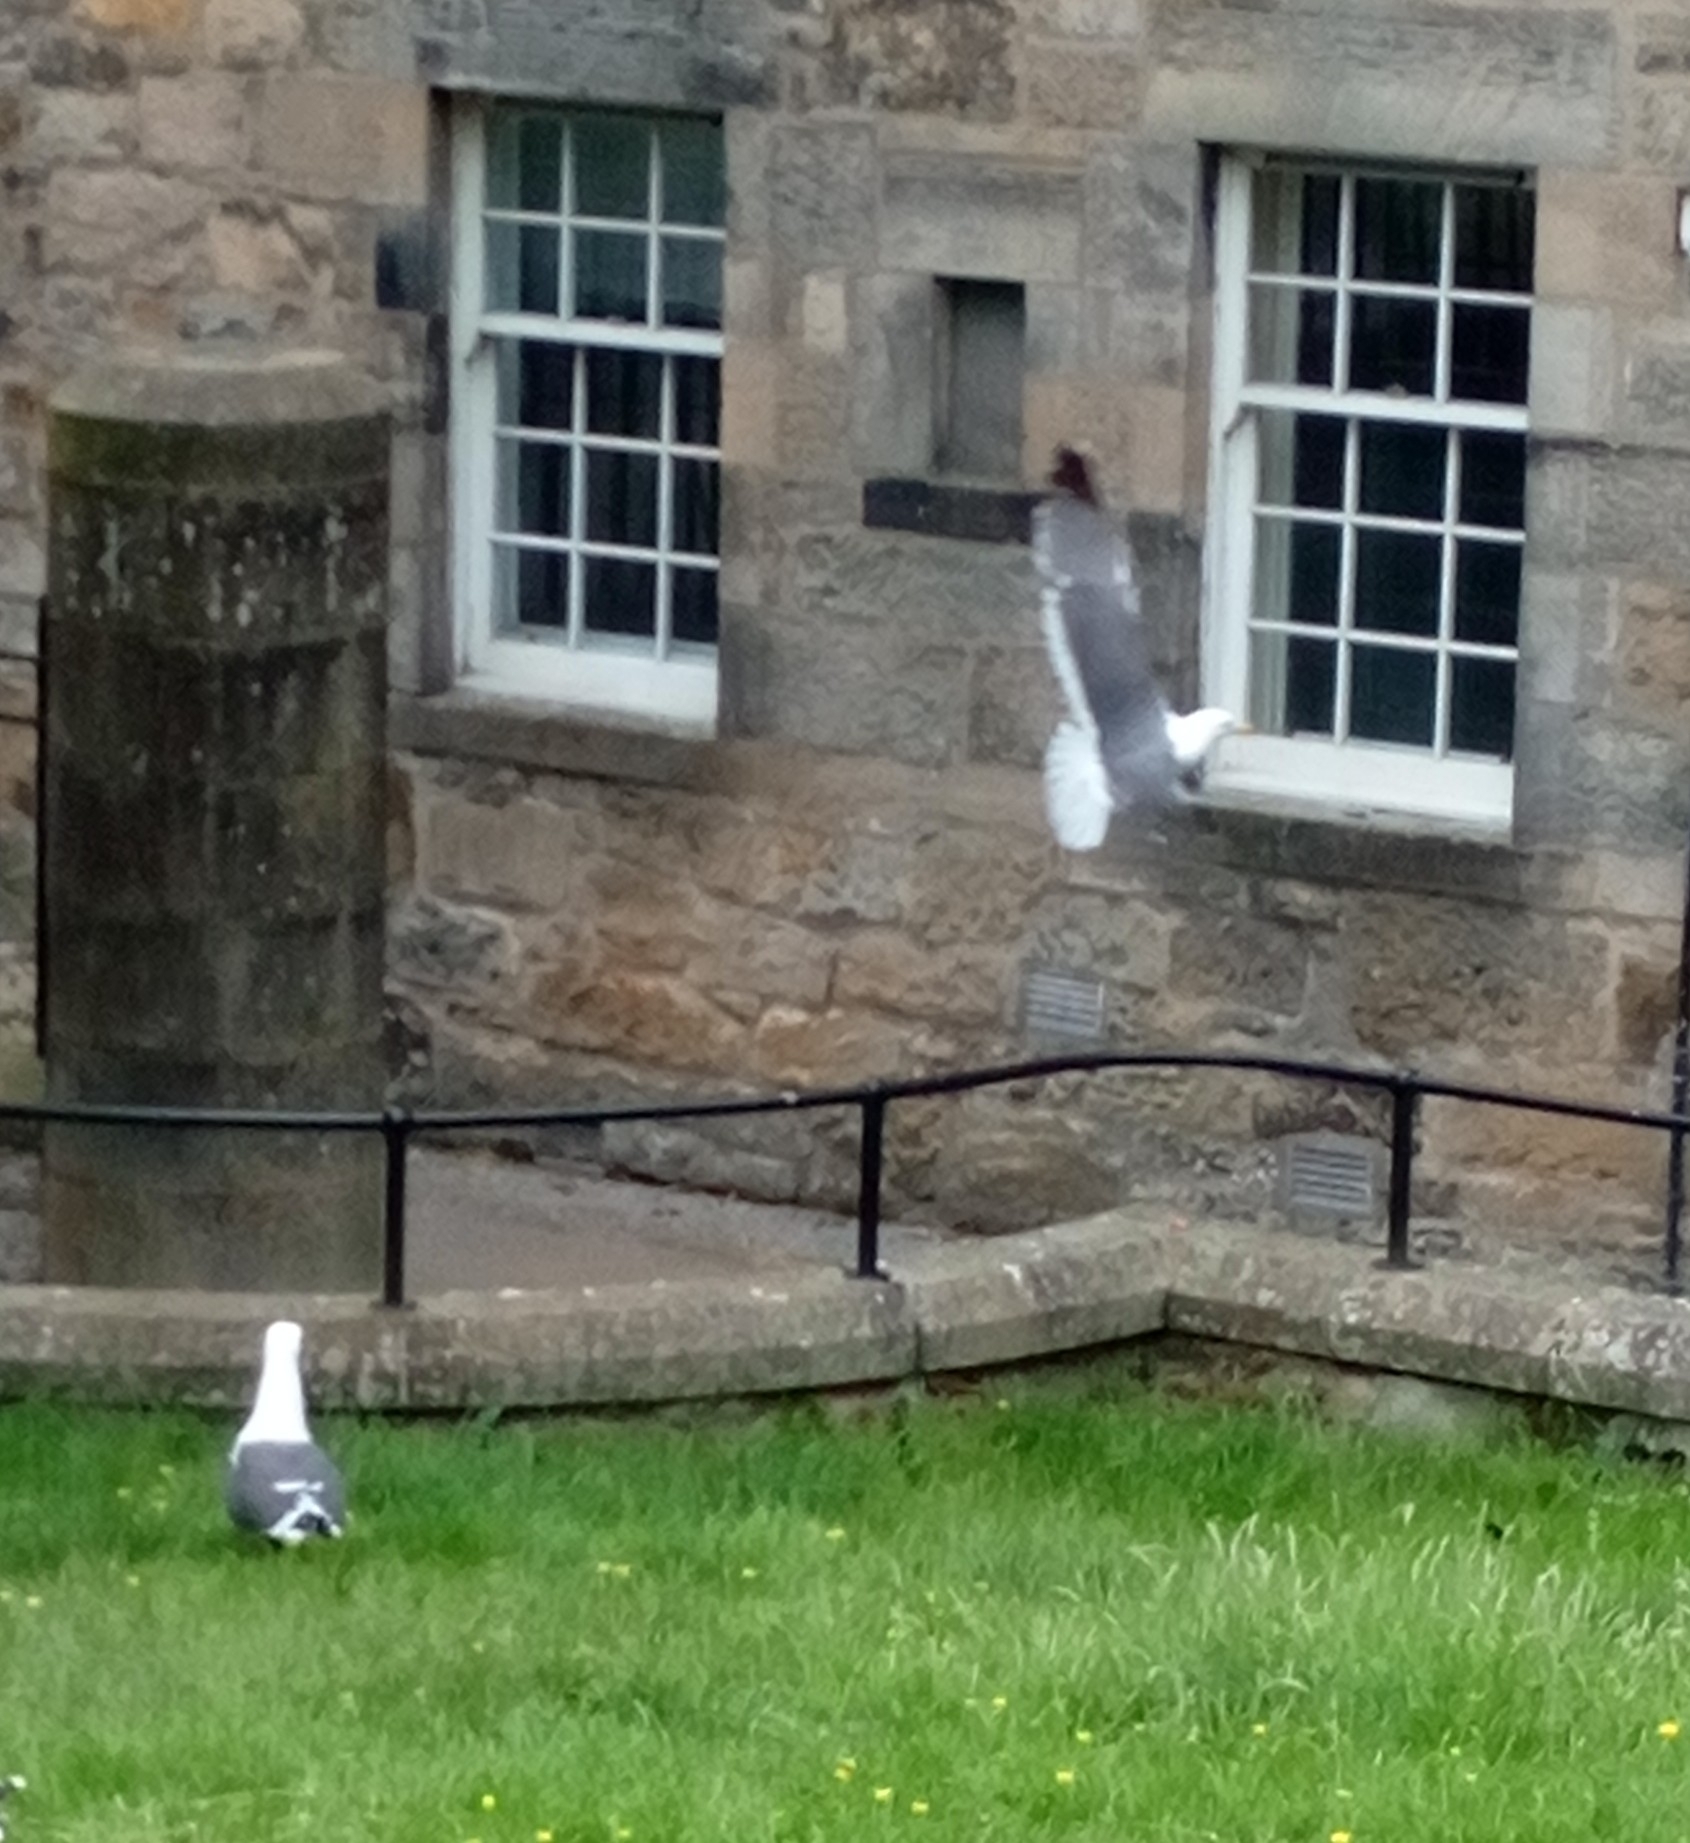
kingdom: Animalia
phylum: Chordata
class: Aves
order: Charadriiformes
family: Laridae
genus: Larus
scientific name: Larus fuscus
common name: Lesser black-backed gull
